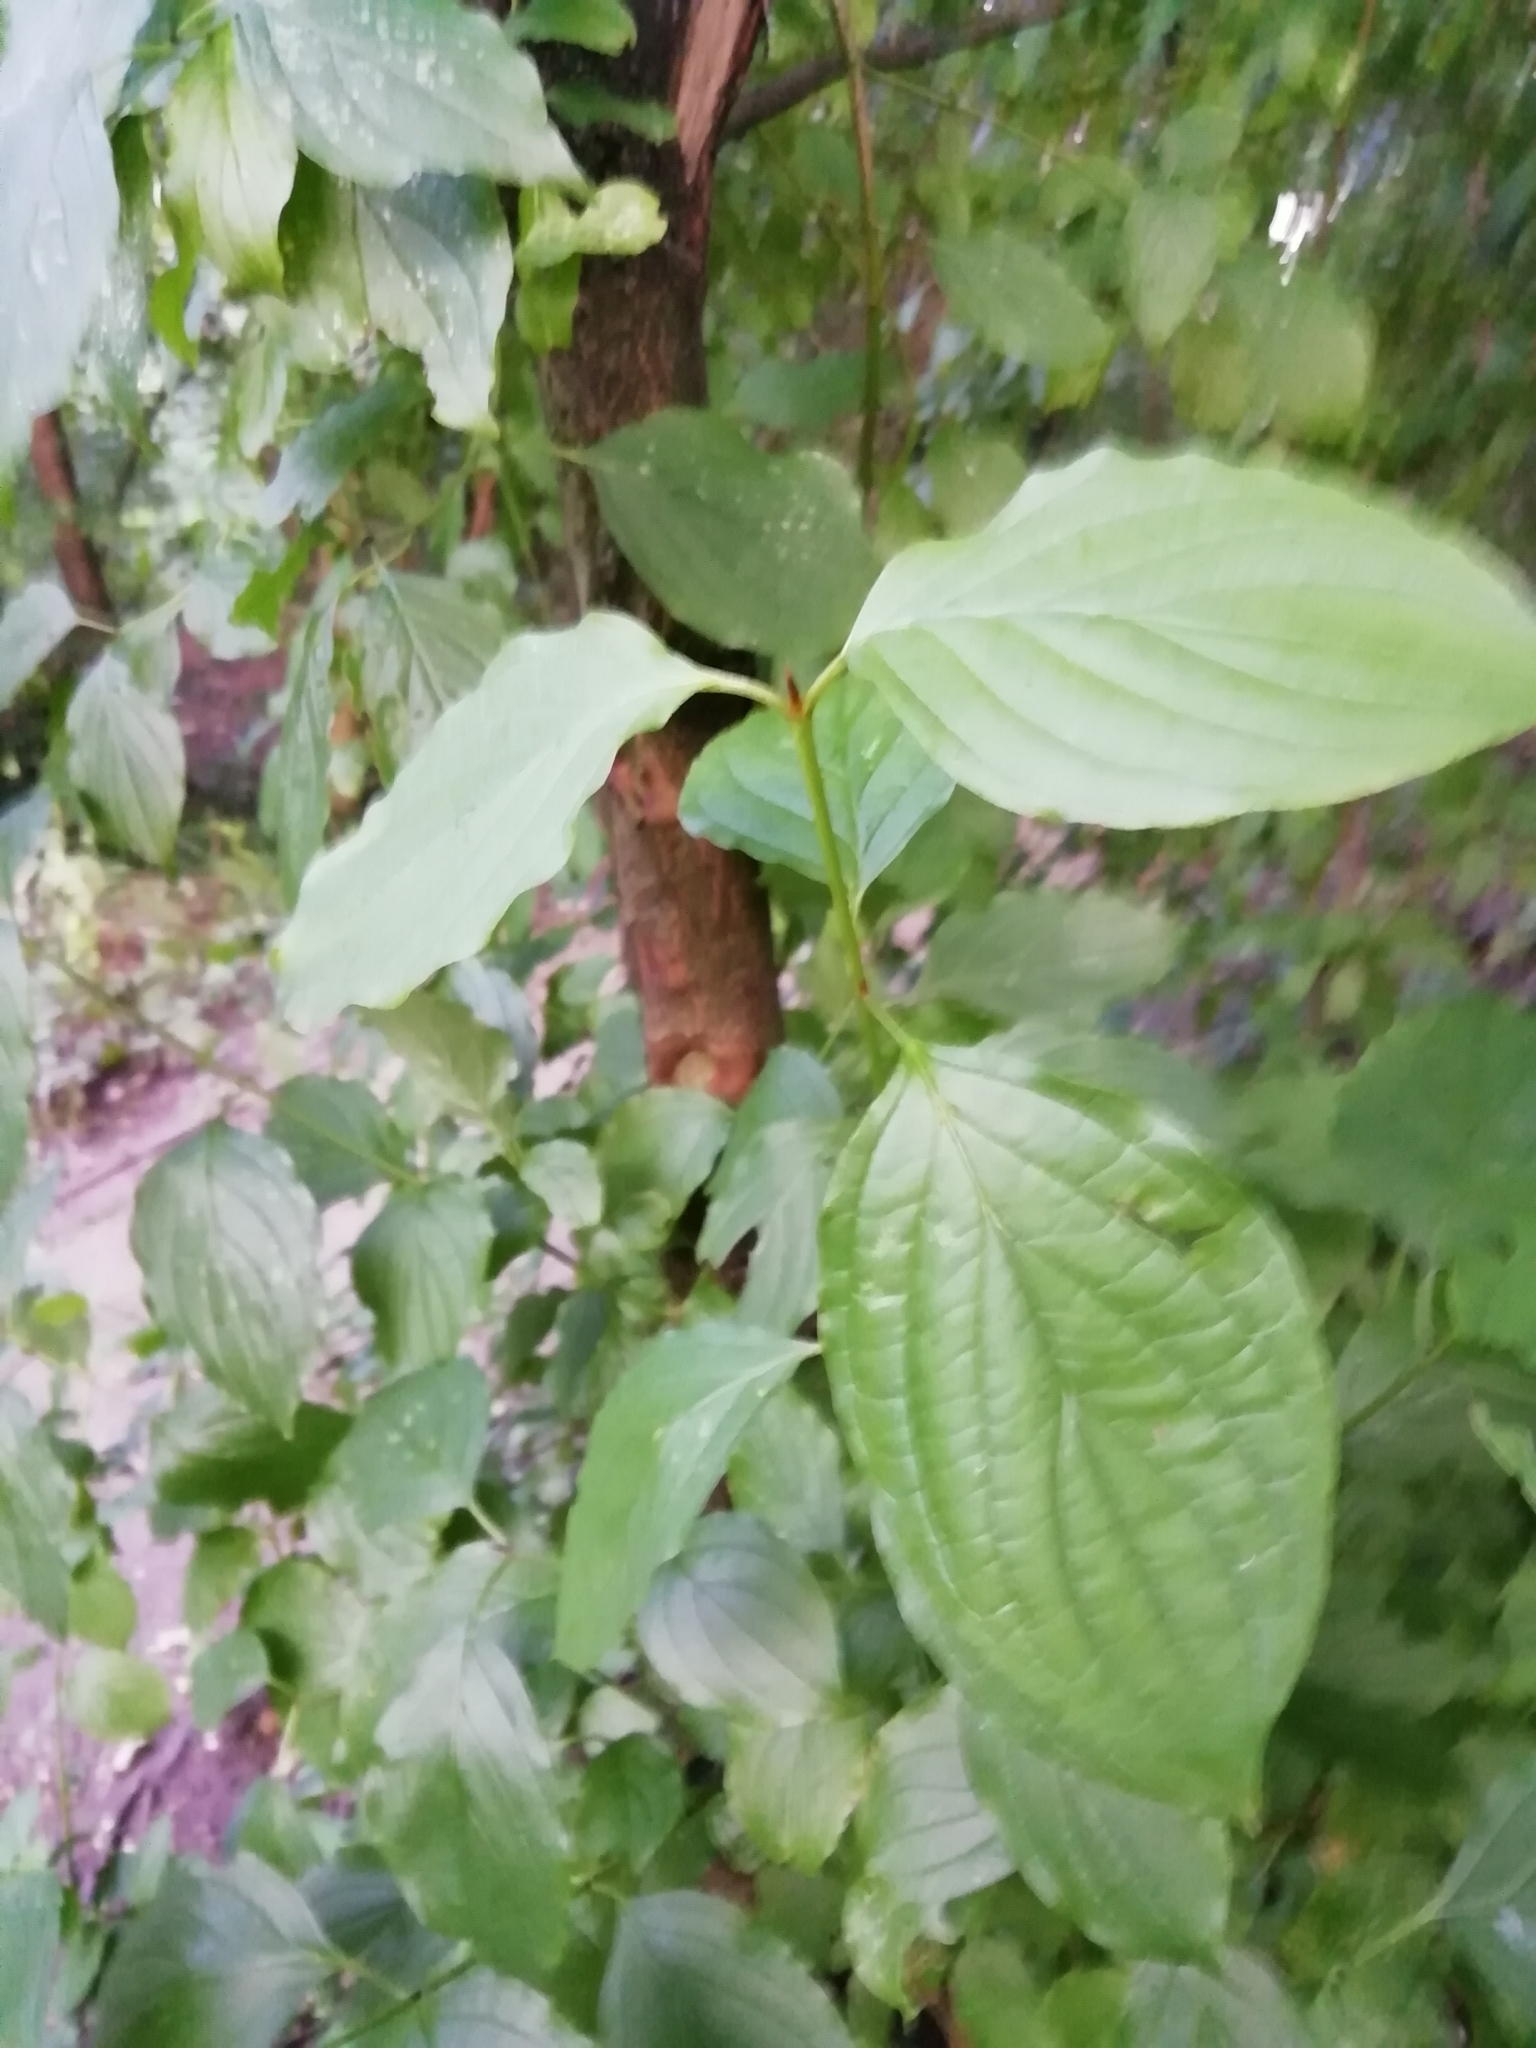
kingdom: Plantae
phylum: Tracheophyta
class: Magnoliopsida
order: Cornales
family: Cornaceae
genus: Cornus
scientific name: Cornus sanguinea
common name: Dogwood
